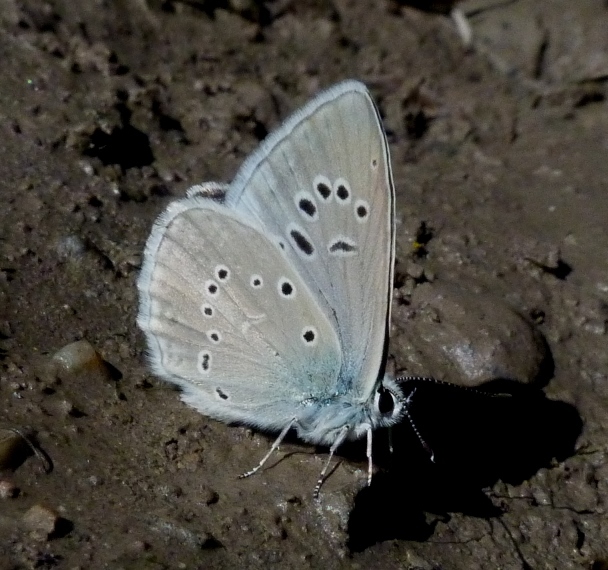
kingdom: Animalia
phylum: Arthropoda
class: Insecta
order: Lepidoptera
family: Lycaenidae
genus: Agrodiaetus
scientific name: Agrodiaetus dolus
